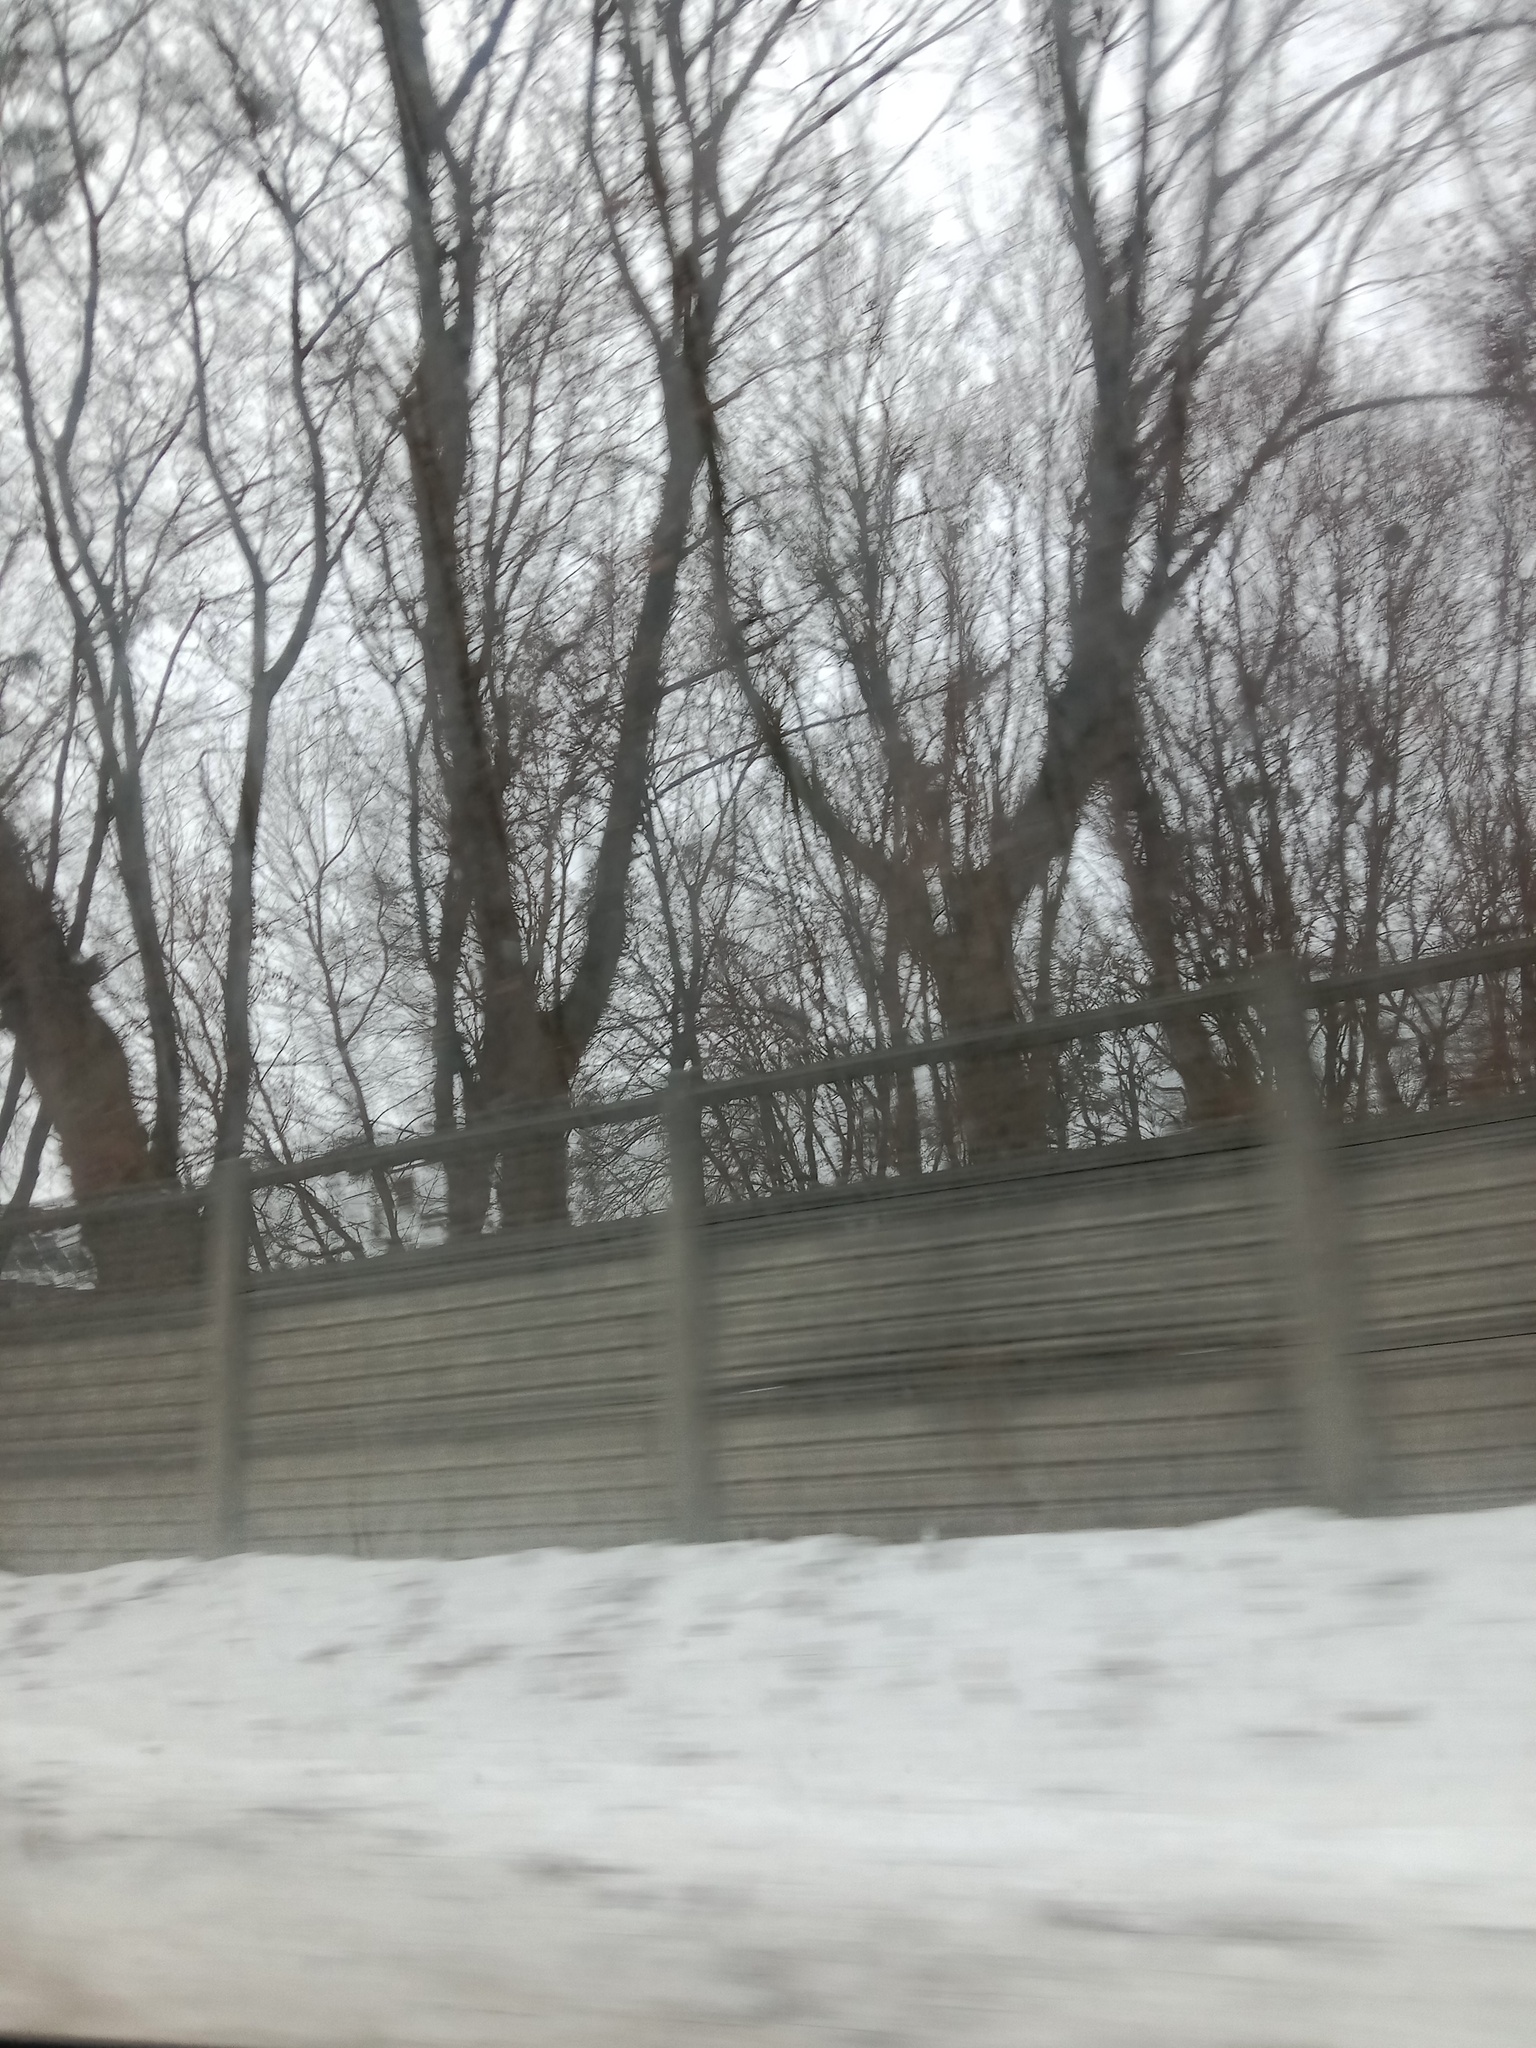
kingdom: Plantae
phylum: Tracheophyta
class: Magnoliopsida
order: Santalales
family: Viscaceae
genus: Viscum
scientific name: Viscum album
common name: Mistletoe
